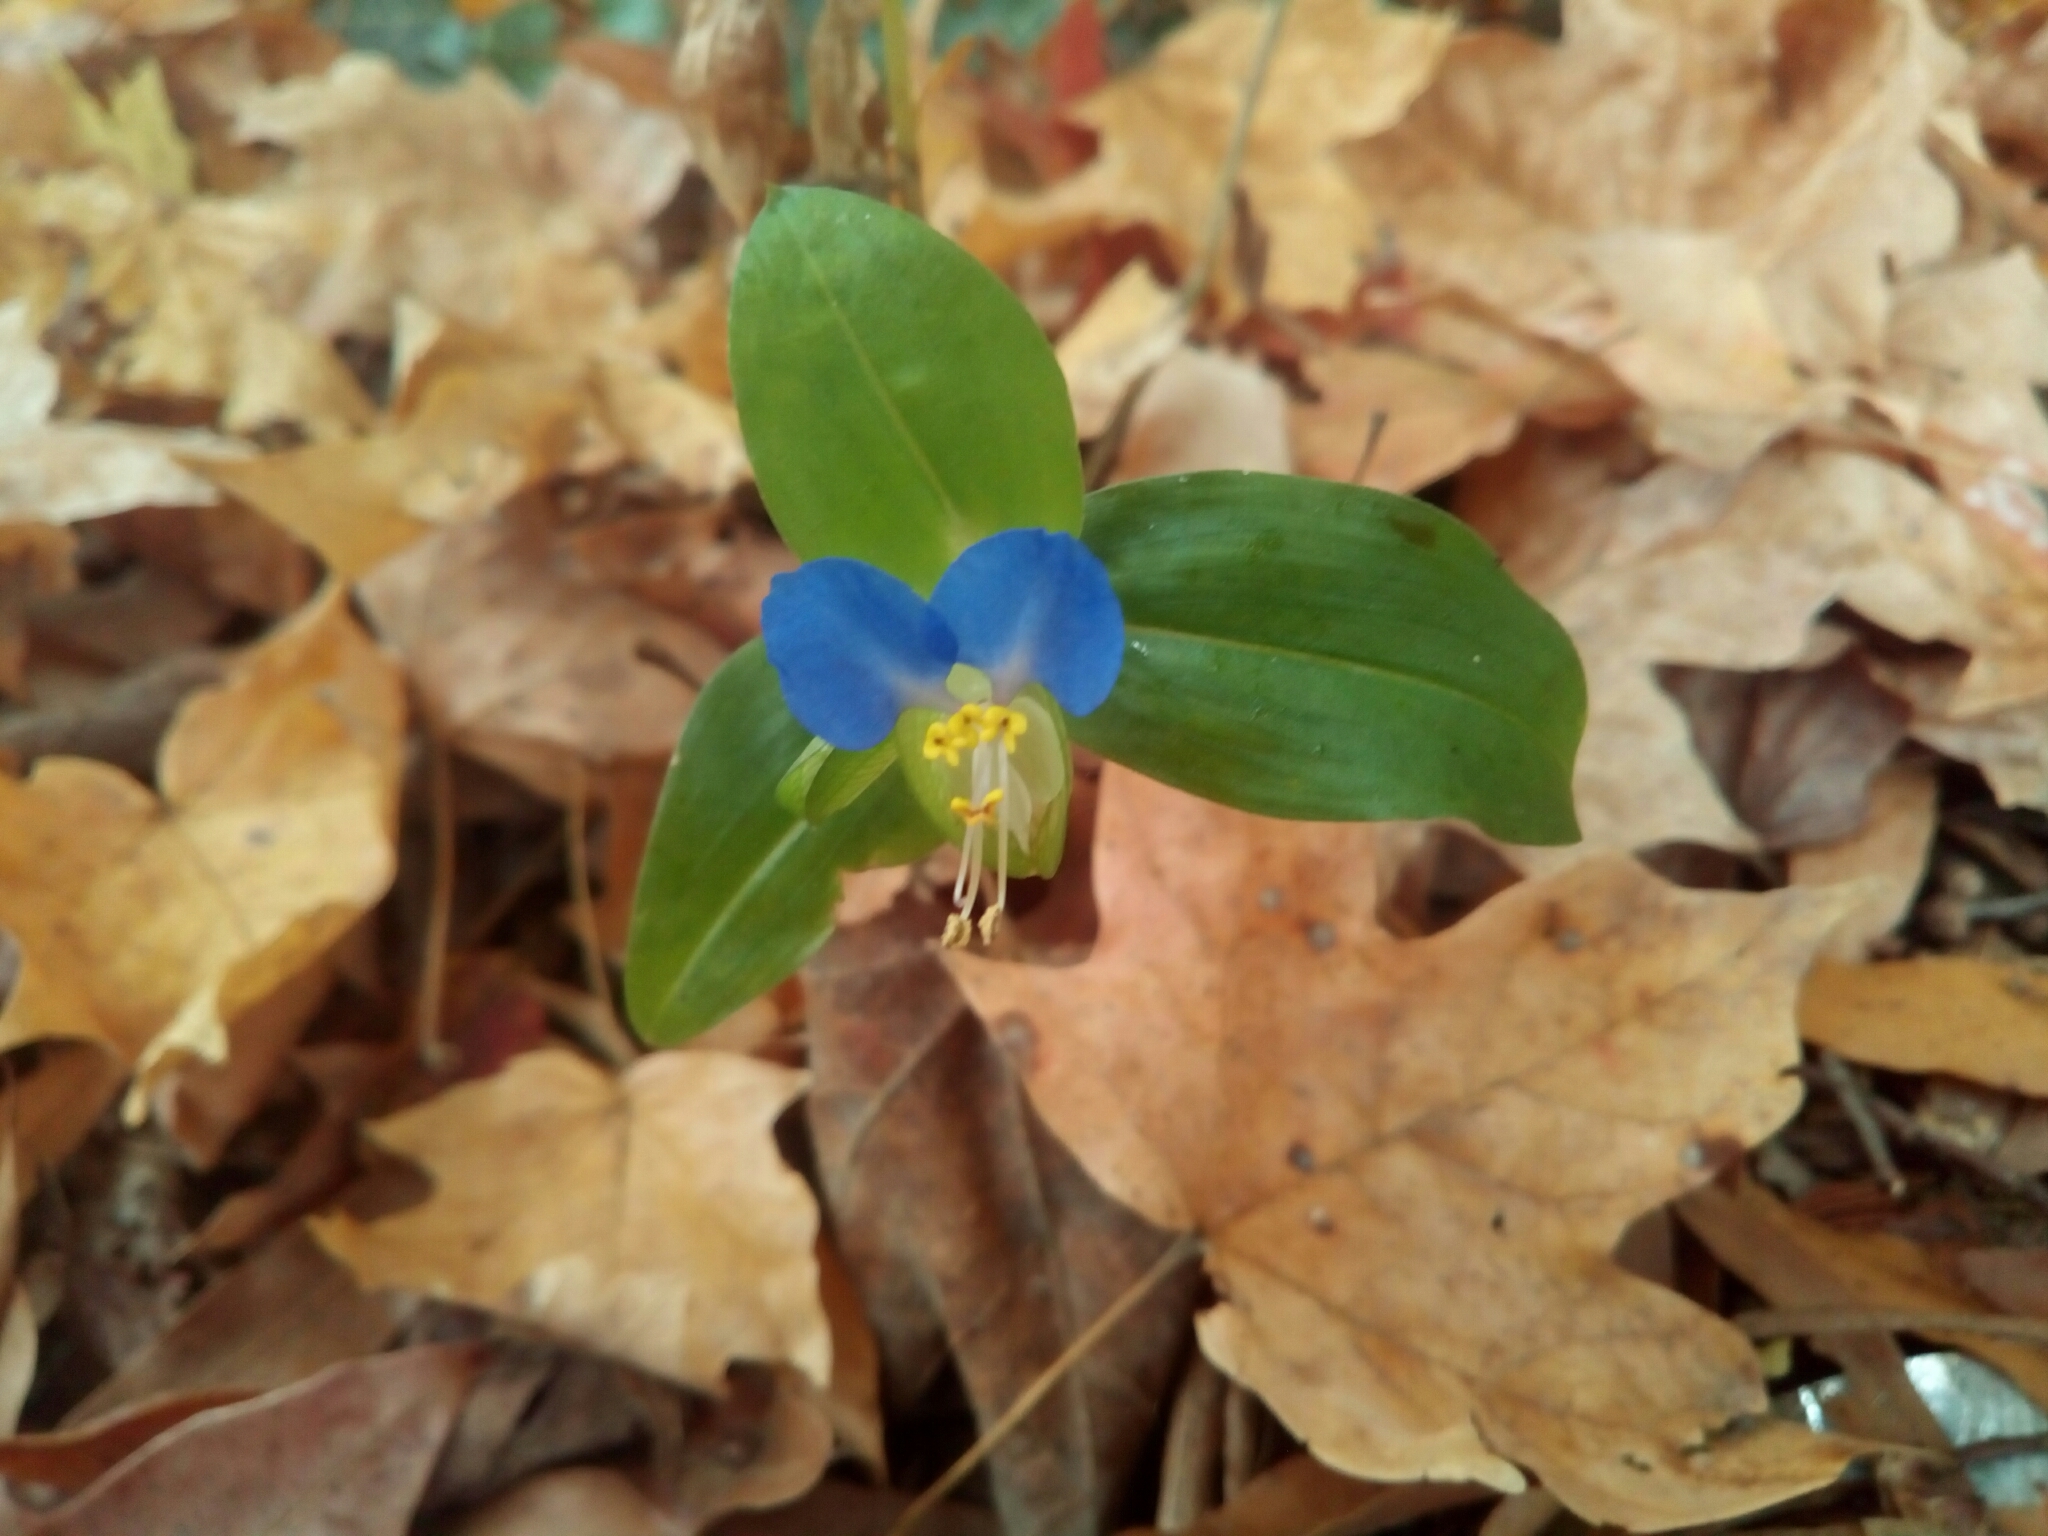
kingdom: Plantae
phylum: Tracheophyta
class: Liliopsida
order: Commelinales
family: Commelinaceae
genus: Commelina
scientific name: Commelina communis
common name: Asiatic dayflower
